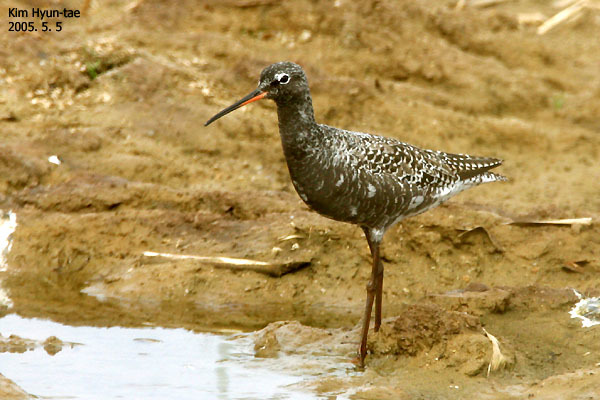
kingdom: Animalia
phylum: Chordata
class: Aves
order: Charadriiformes
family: Scolopacidae
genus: Tringa
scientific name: Tringa erythropus
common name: Spotted redshank
